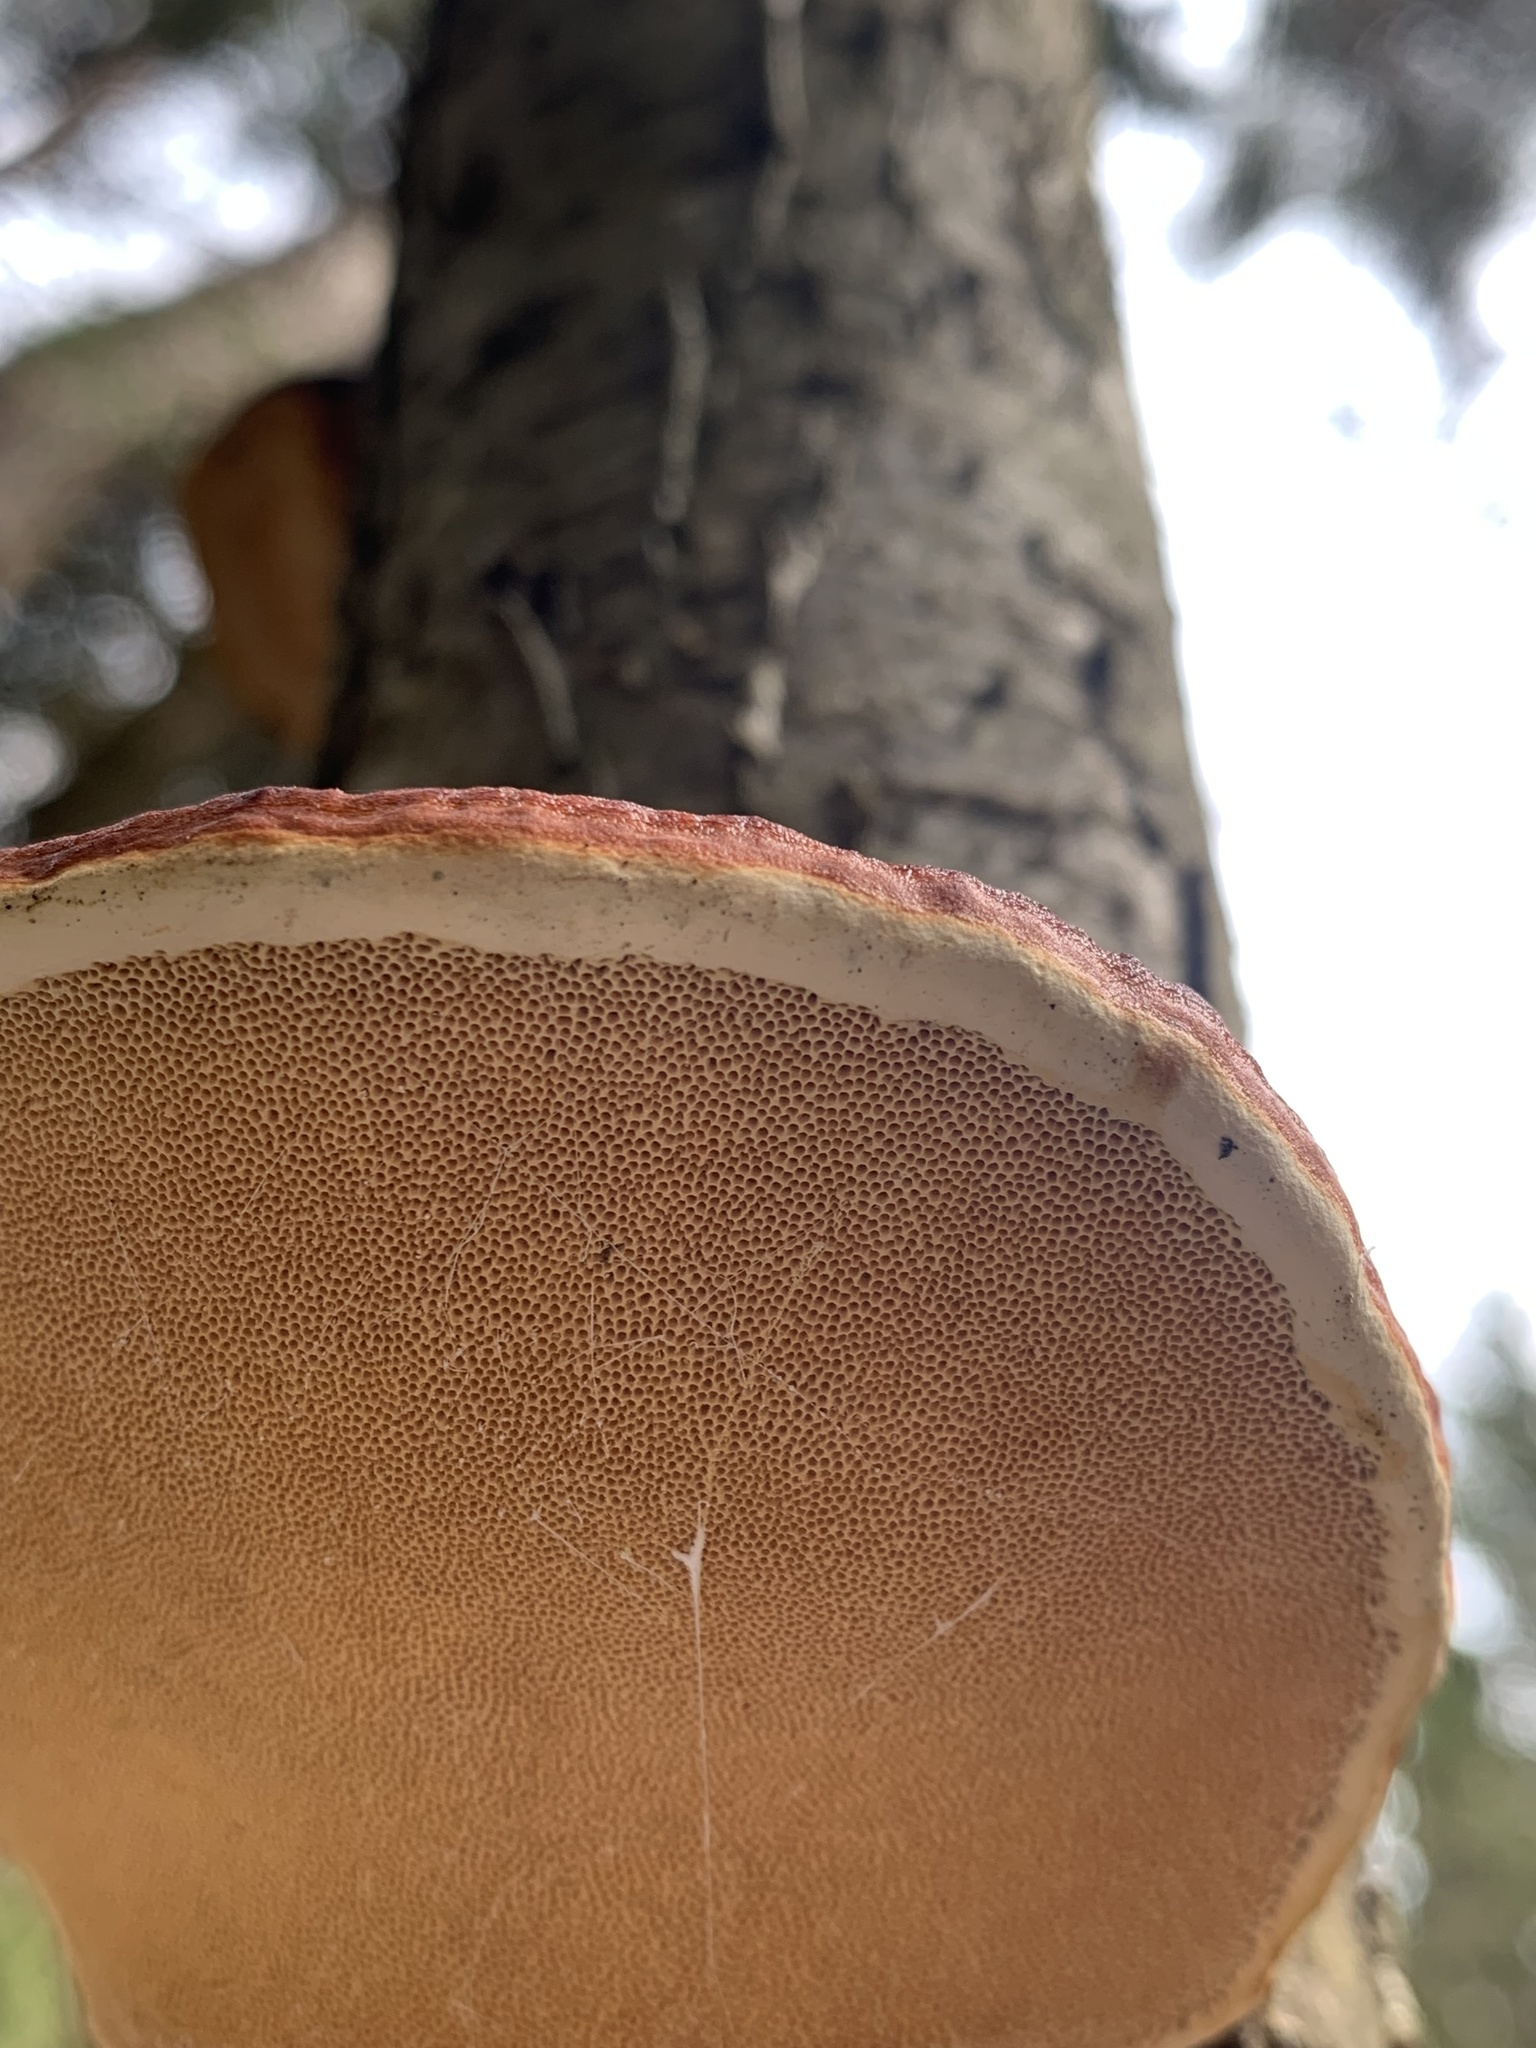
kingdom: Fungi
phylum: Basidiomycota
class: Agaricomycetes
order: Polyporales
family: Fomitopsidaceae
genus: Fomitopsis
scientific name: Fomitopsis pinicola
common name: Red-belted bracket
